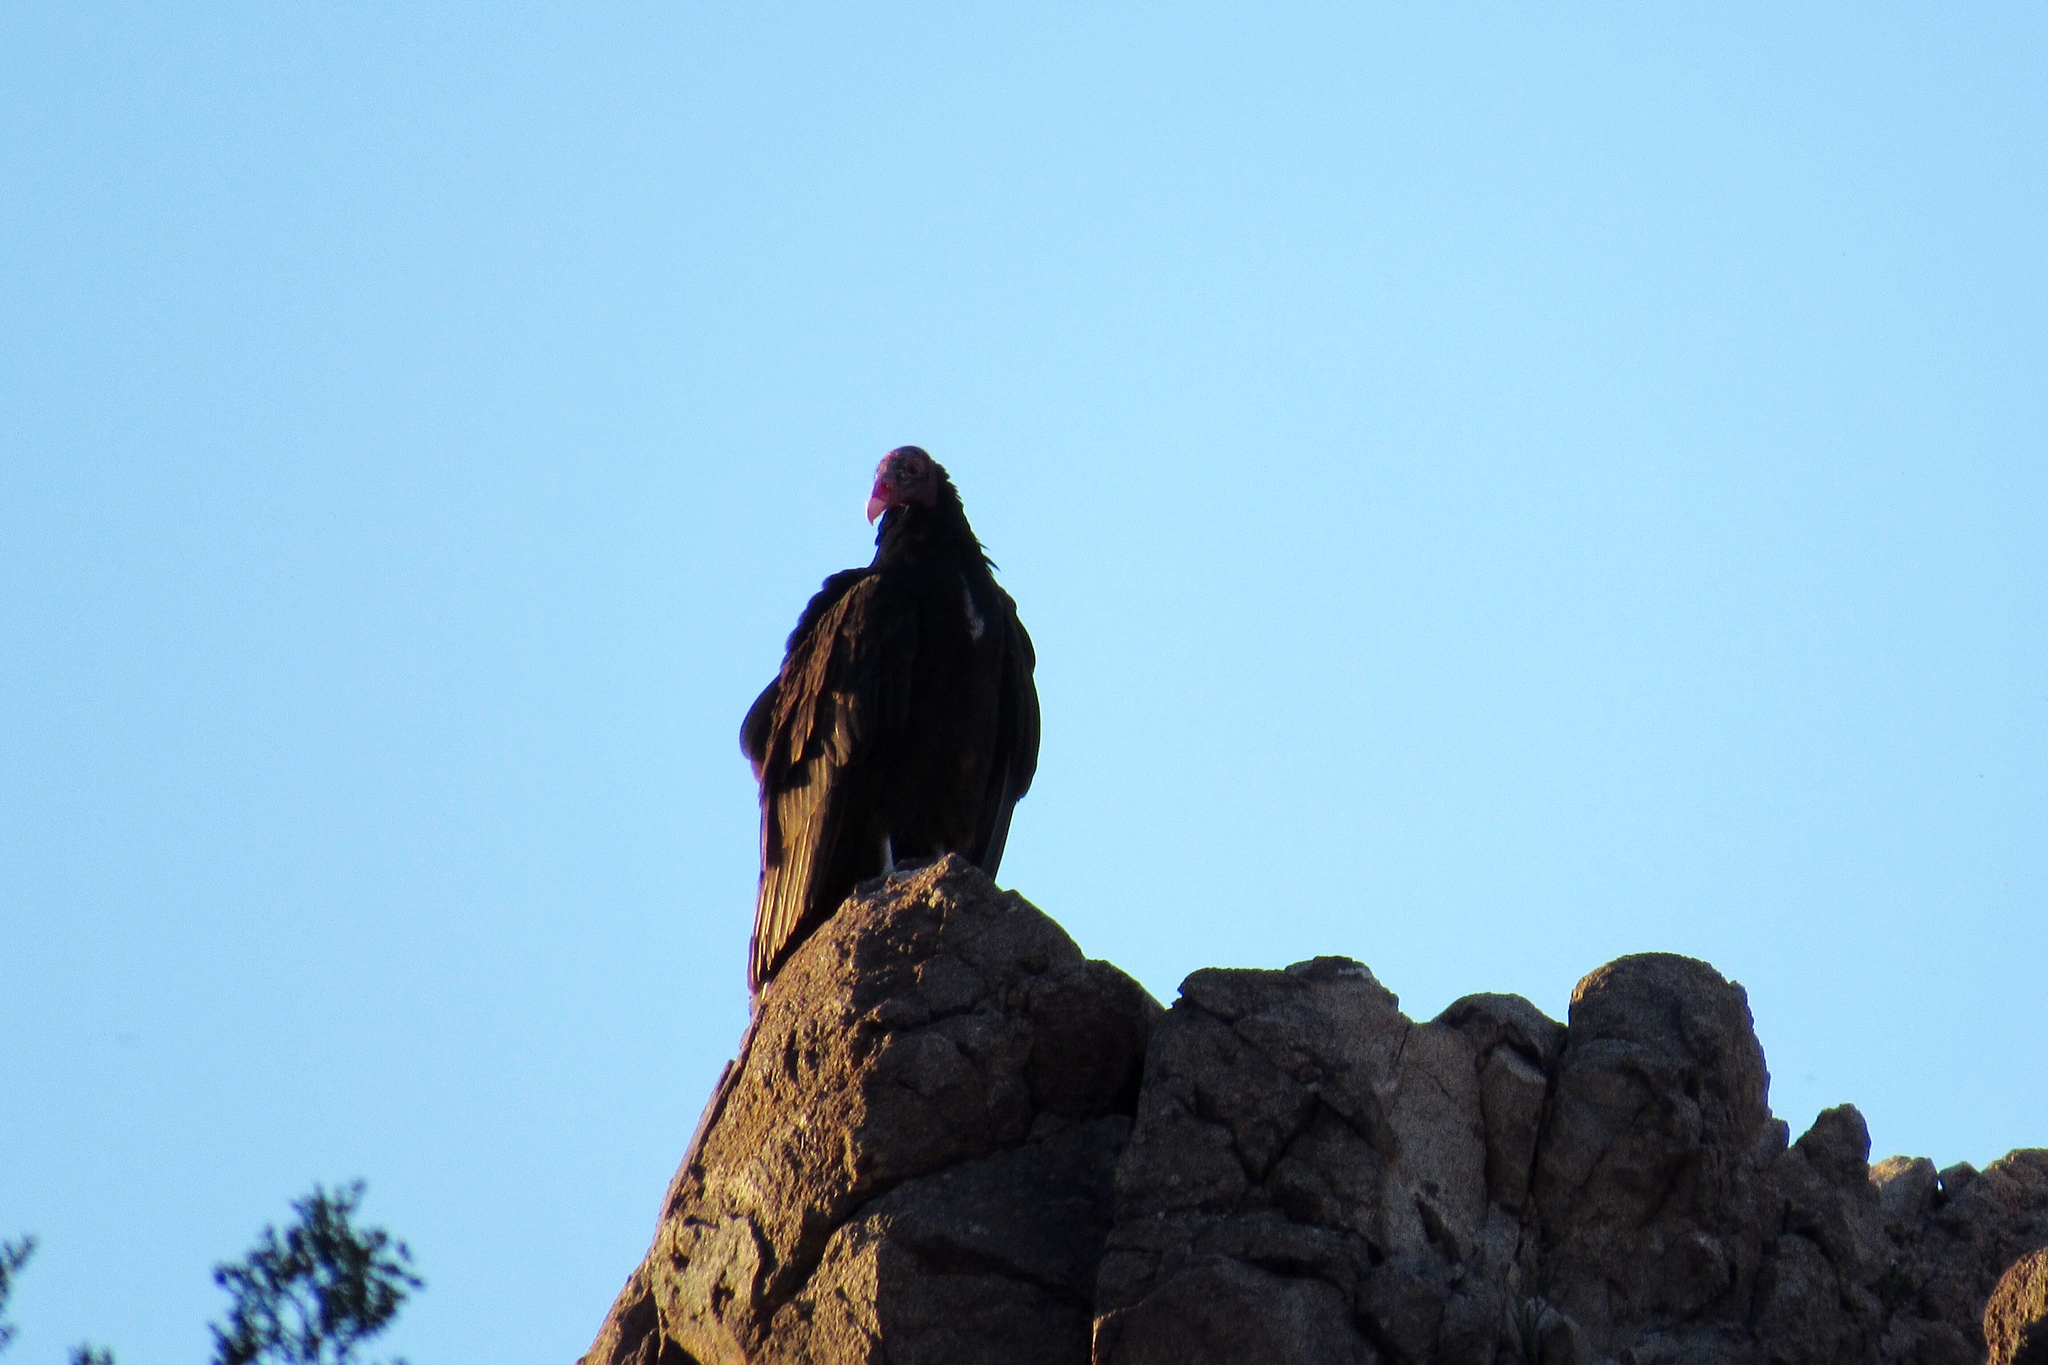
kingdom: Animalia
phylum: Chordata
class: Aves
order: Accipitriformes
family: Cathartidae
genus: Cathartes
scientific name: Cathartes aura
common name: Turkey vulture
